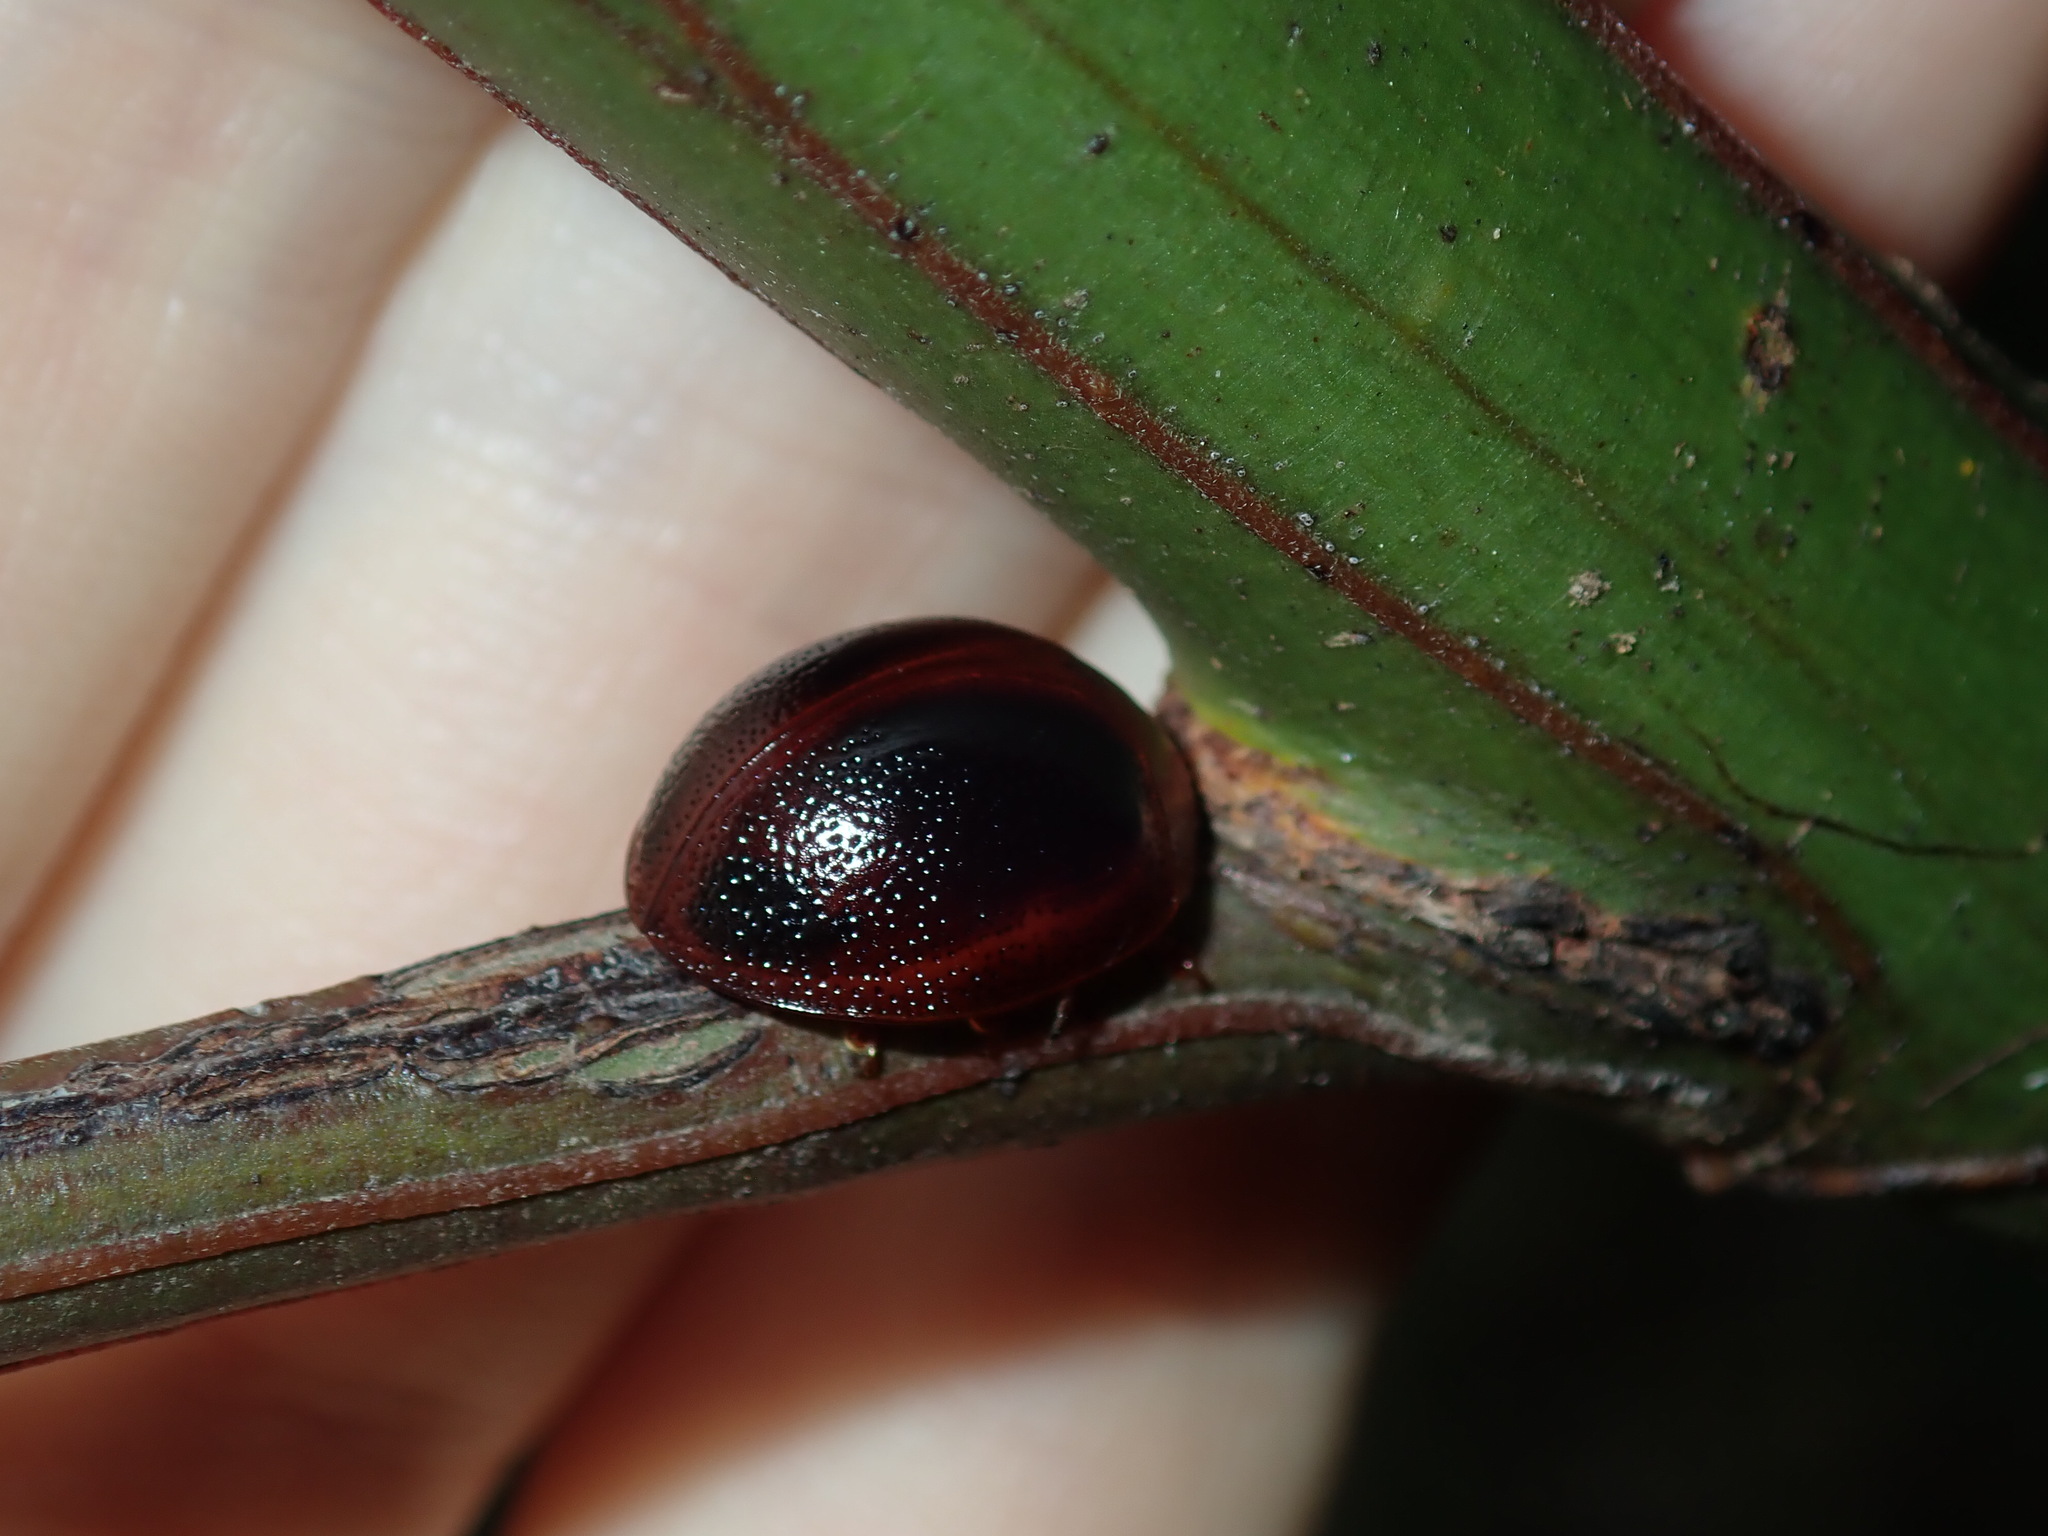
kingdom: Animalia
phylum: Arthropoda
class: Insecta
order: Coleoptera
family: Chrysomelidae
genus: Dicranosterna
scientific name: Dicranosterna
